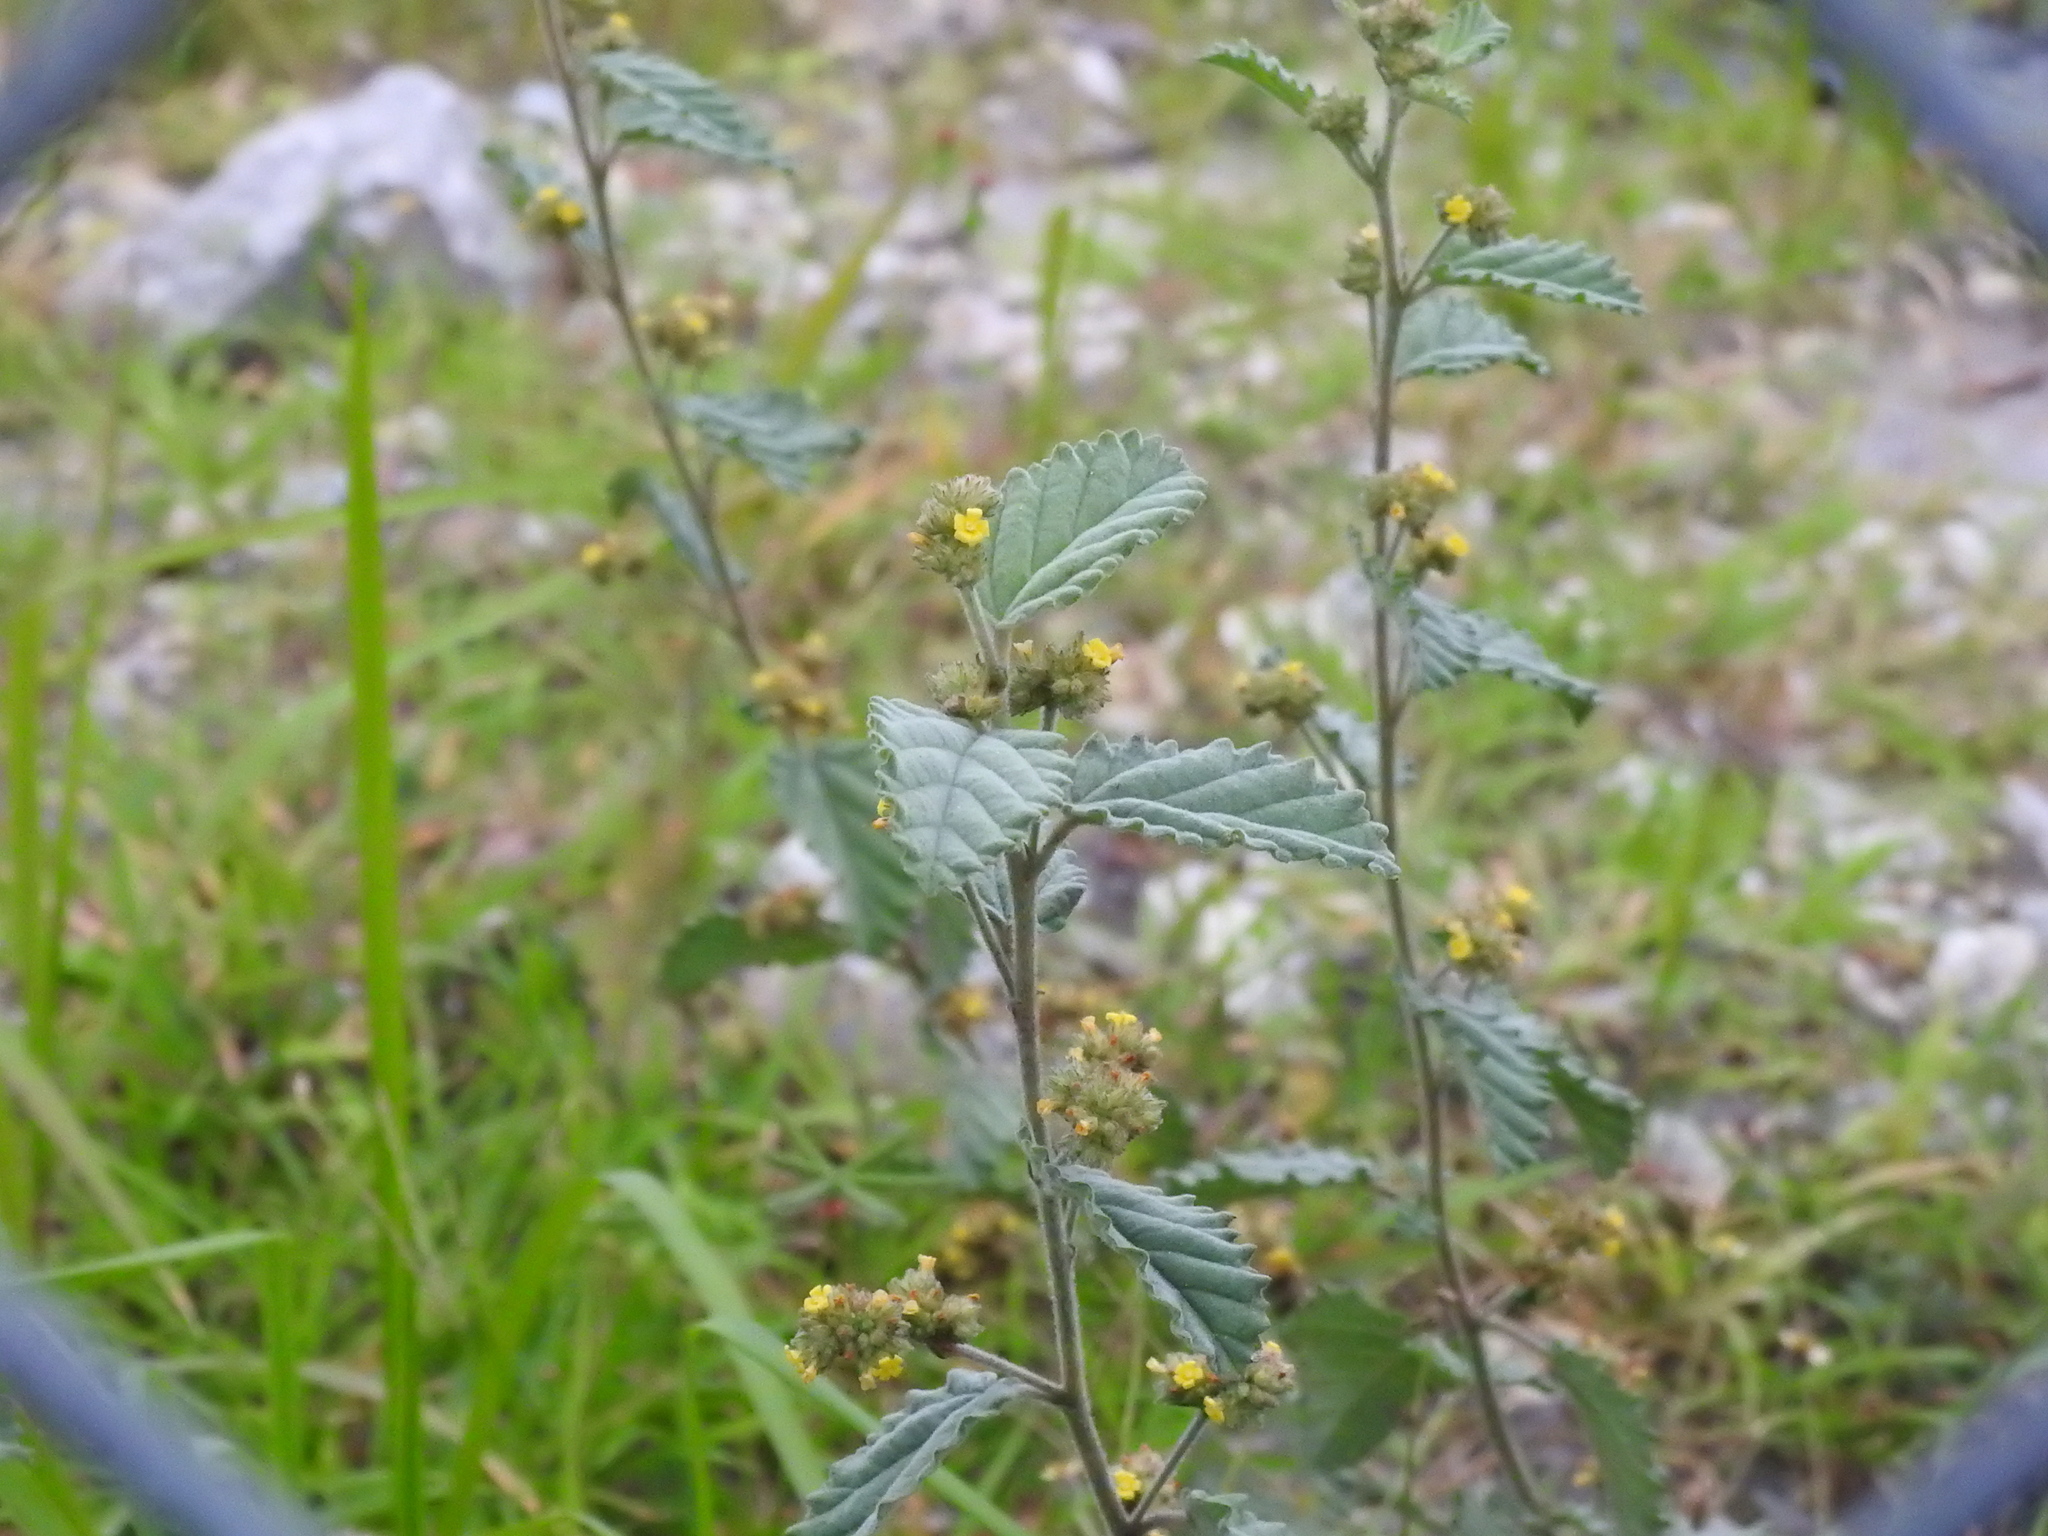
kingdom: Plantae
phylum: Tracheophyta
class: Magnoliopsida
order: Malvales
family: Malvaceae
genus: Waltheria
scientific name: Waltheria indica
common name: Leather-coat
